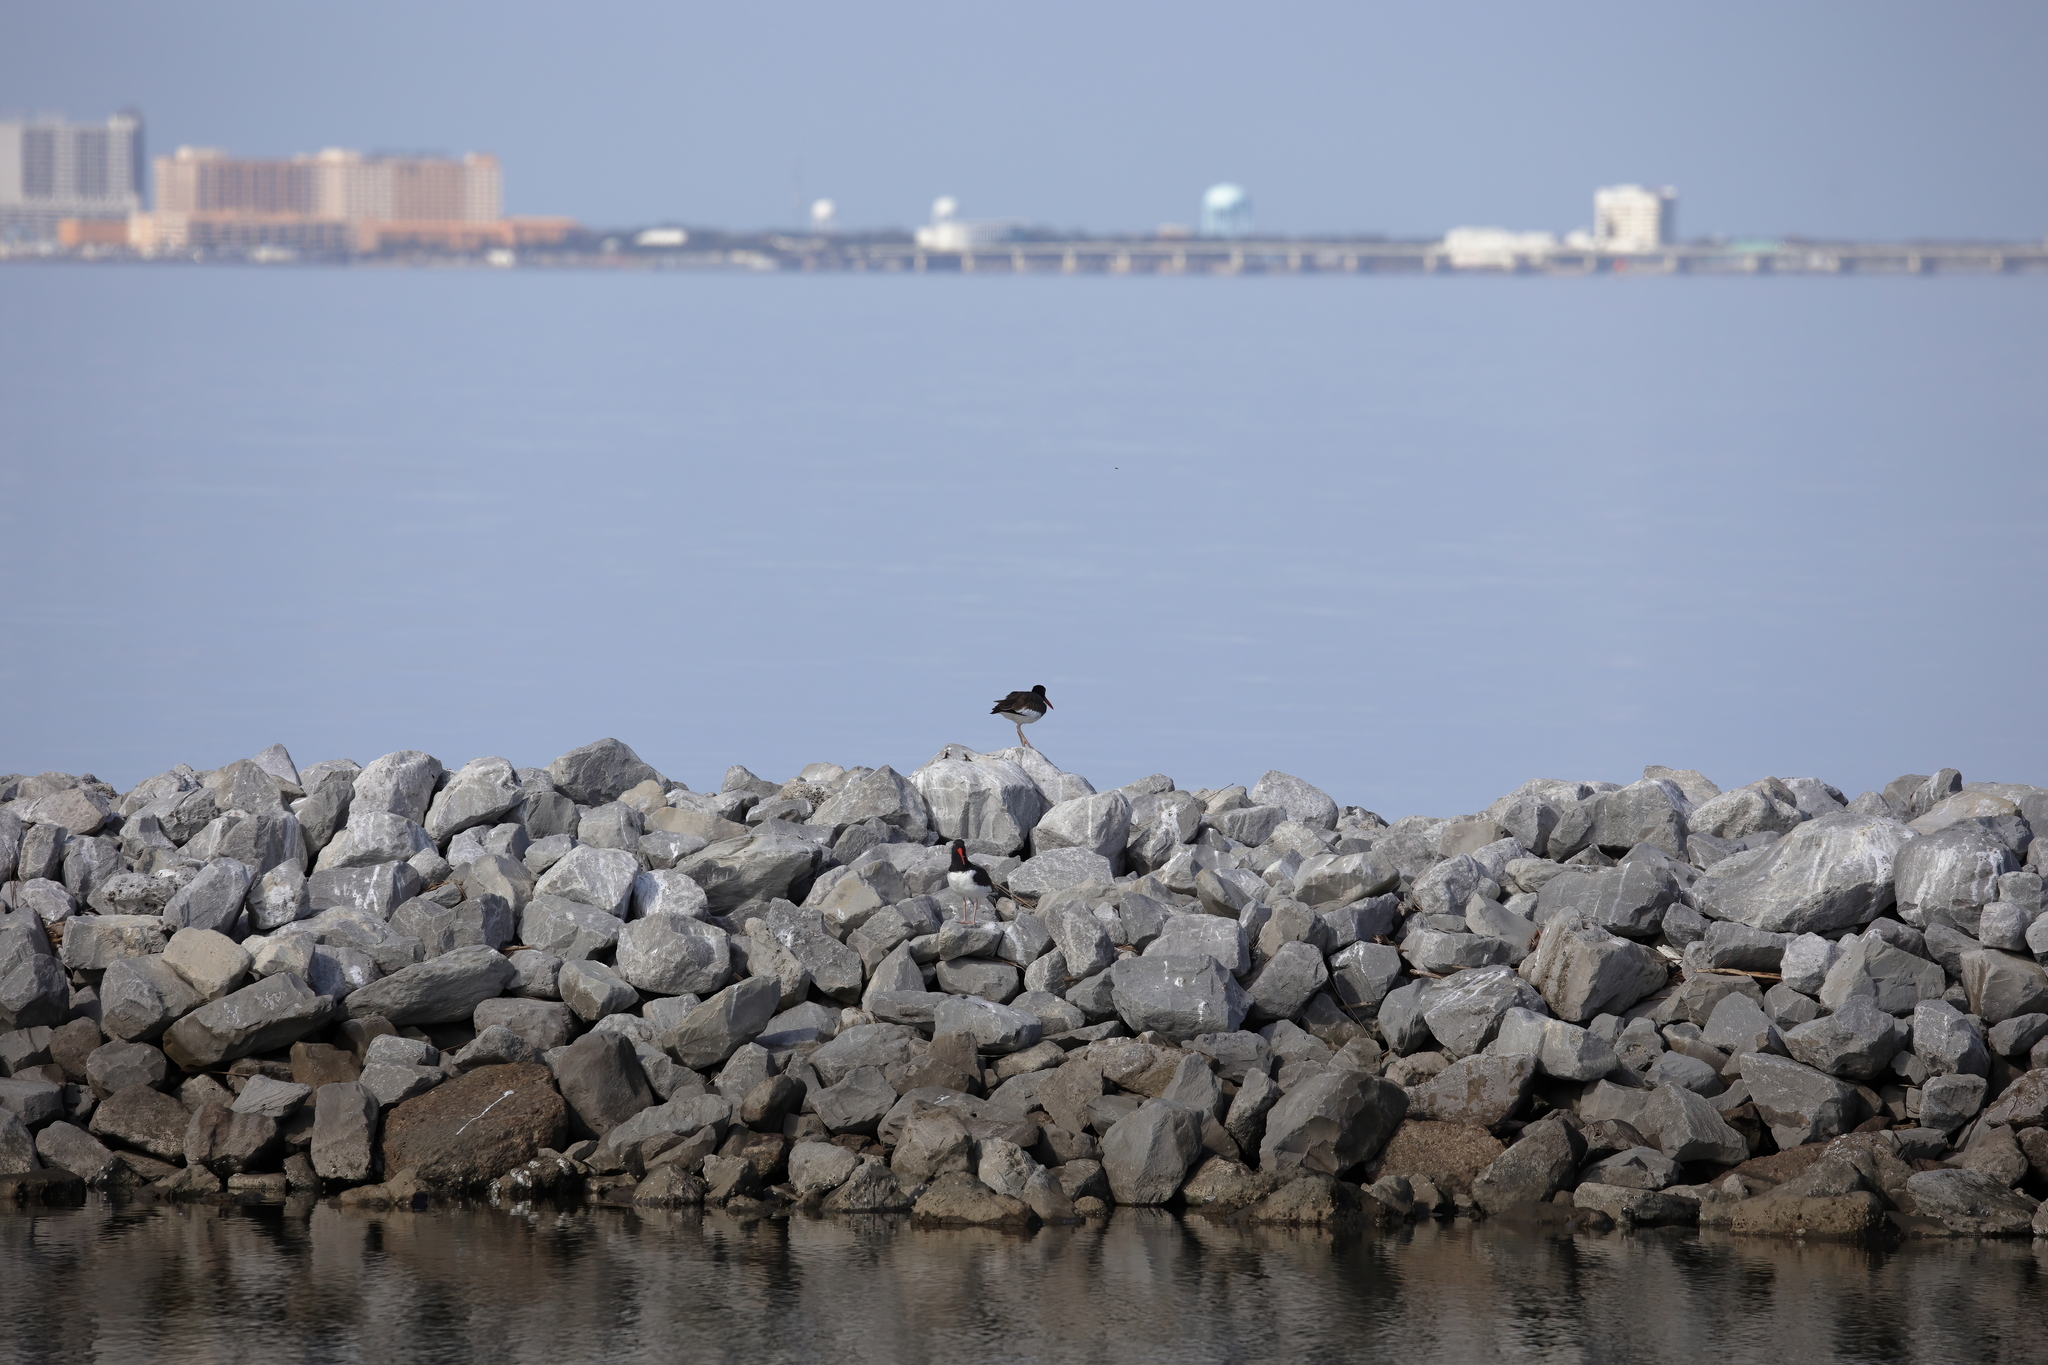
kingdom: Animalia
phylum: Chordata
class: Aves
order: Charadriiformes
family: Haematopodidae
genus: Haematopus
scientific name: Haematopus palliatus
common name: American oystercatcher
